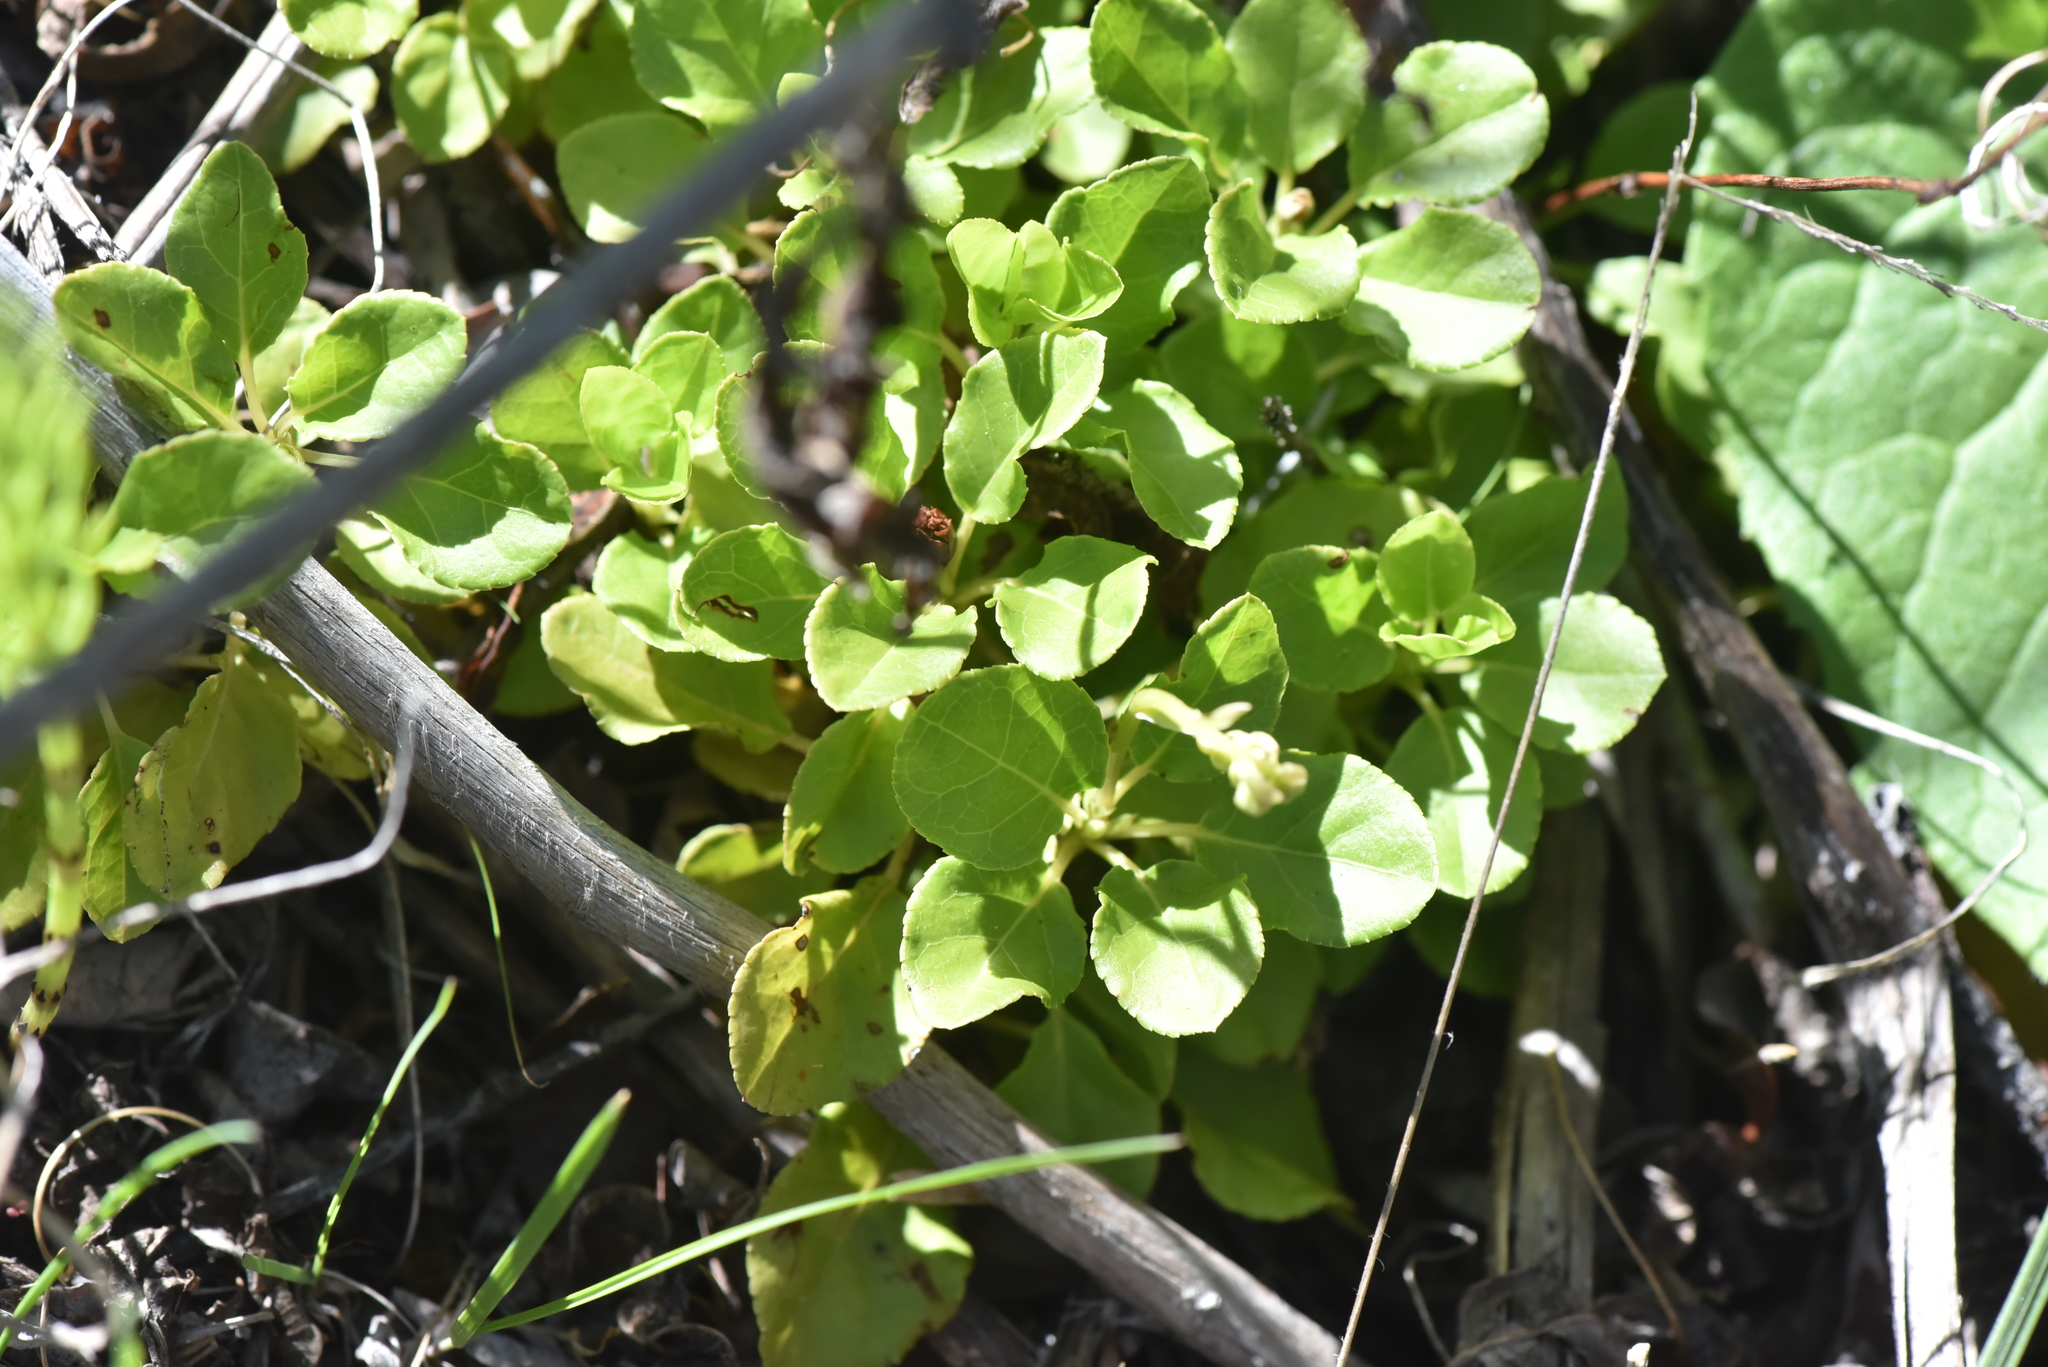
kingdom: Plantae
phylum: Tracheophyta
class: Magnoliopsida
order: Ericales
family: Ericaceae
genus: Orthilia
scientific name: Orthilia secunda
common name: One-sided orthilia
